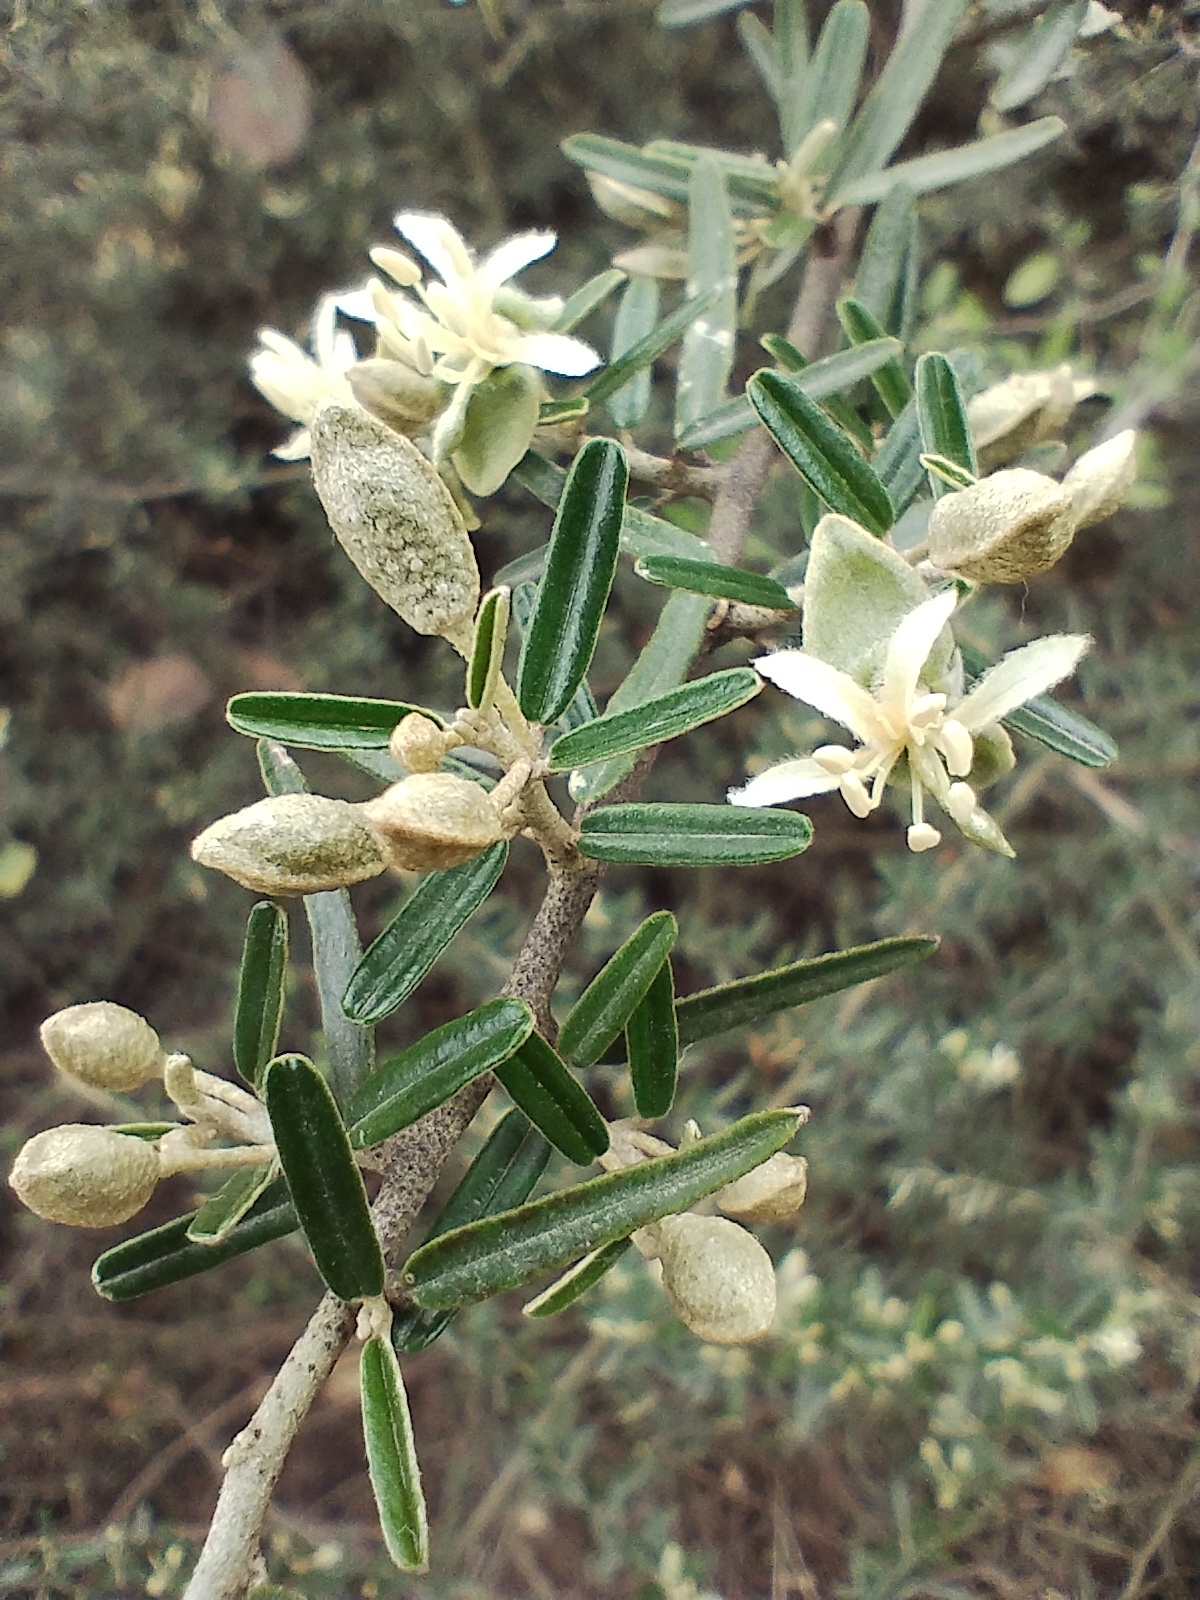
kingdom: Plantae
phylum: Tracheophyta
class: Magnoliopsida
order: Brassicales
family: Capparaceae
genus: Atamisquea
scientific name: Atamisquea emarginata
